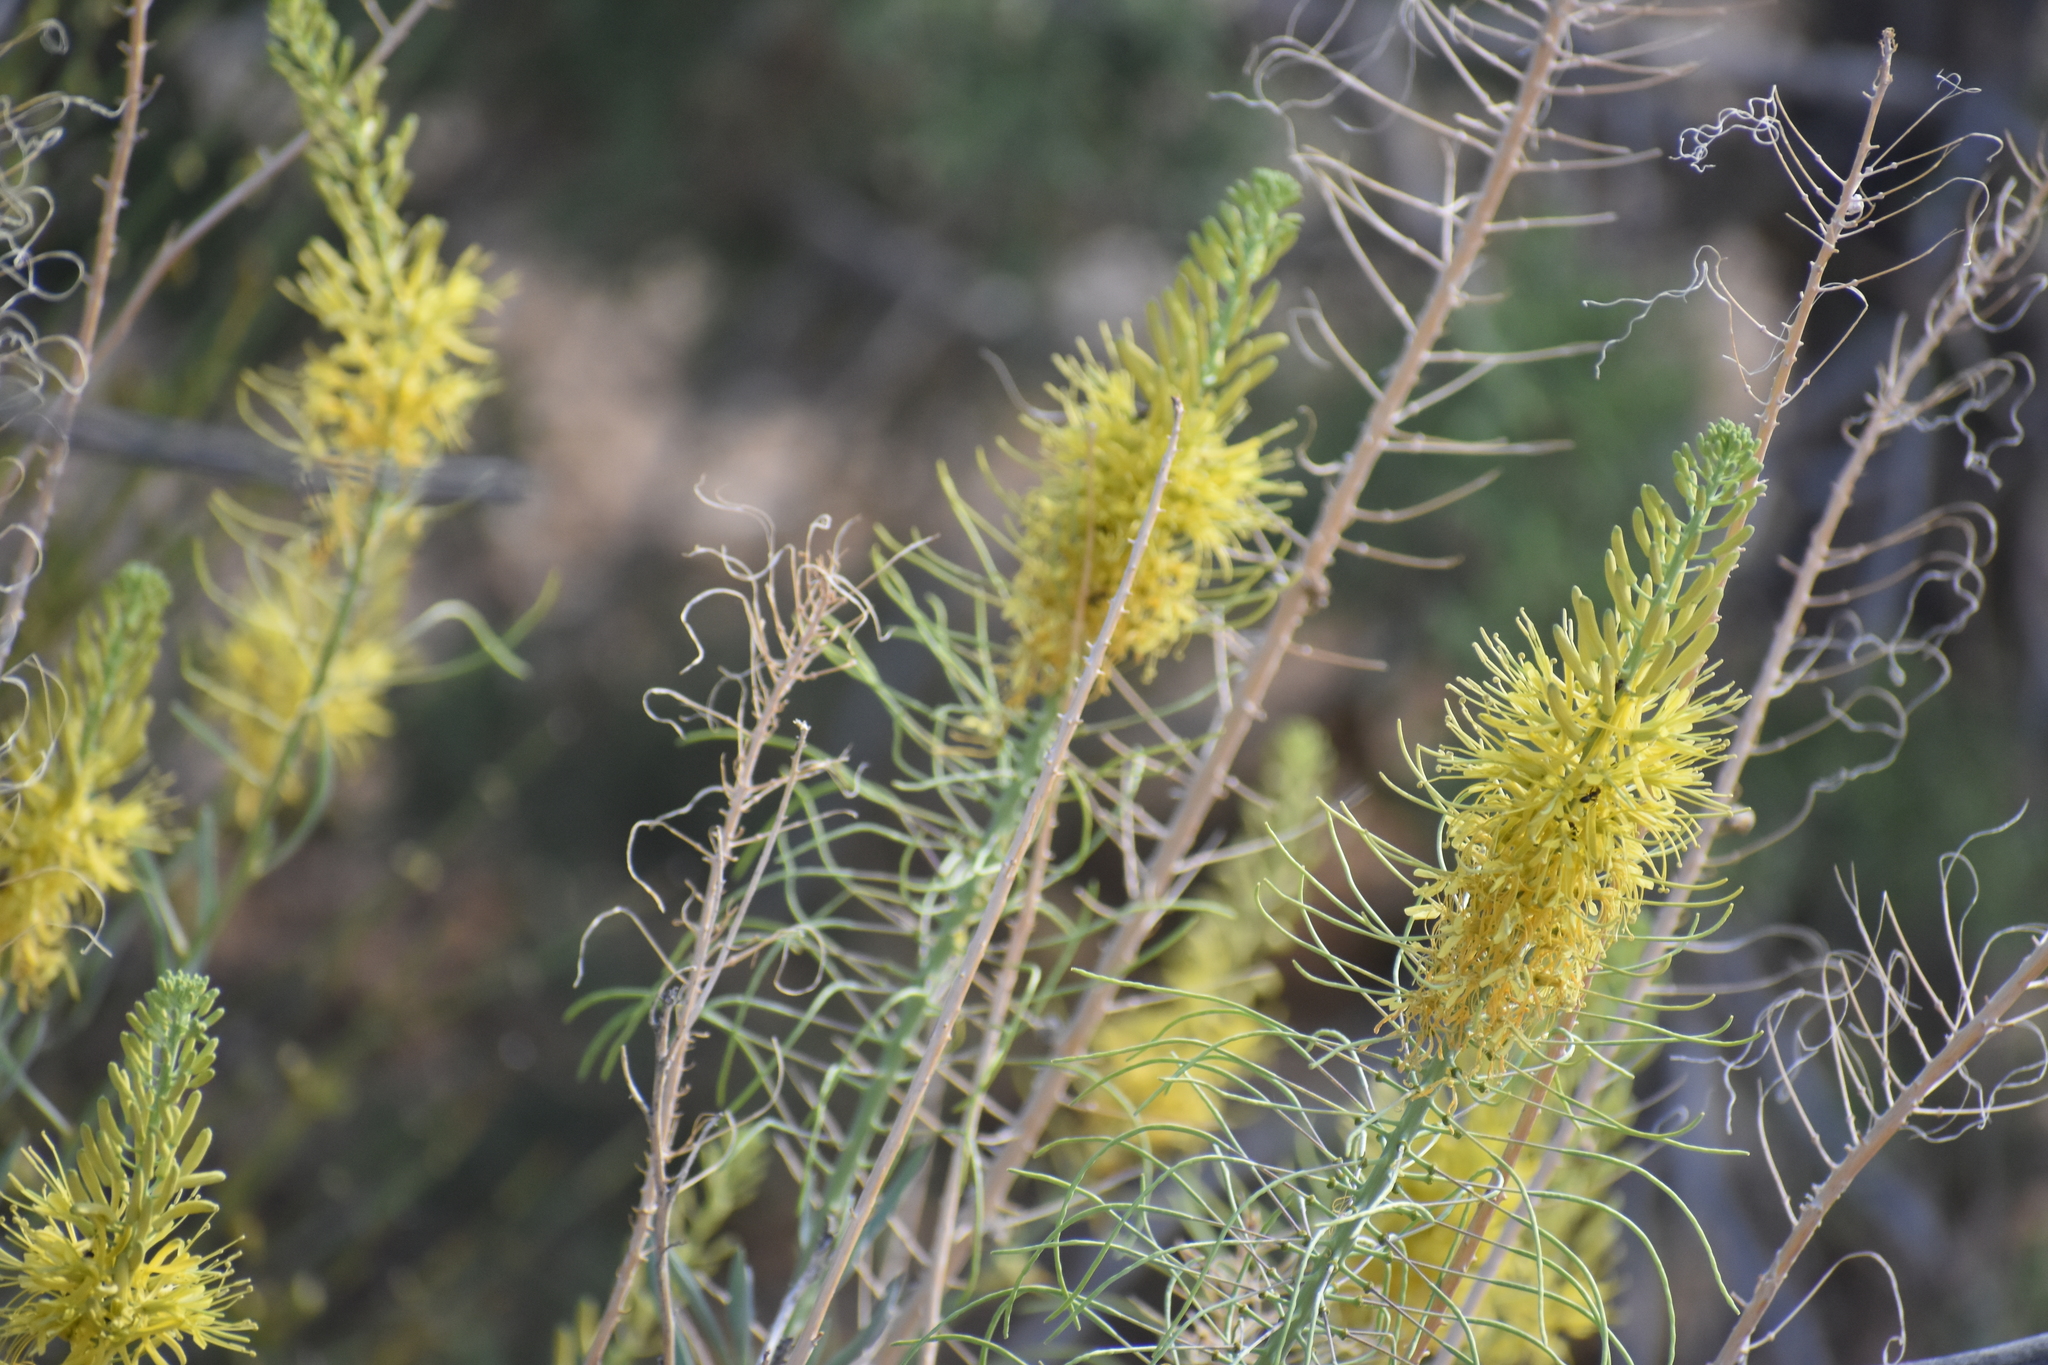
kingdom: Plantae
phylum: Tracheophyta
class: Magnoliopsida
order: Brassicales
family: Brassicaceae
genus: Stanleya
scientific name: Stanleya pinnata
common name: Prince's-plume
